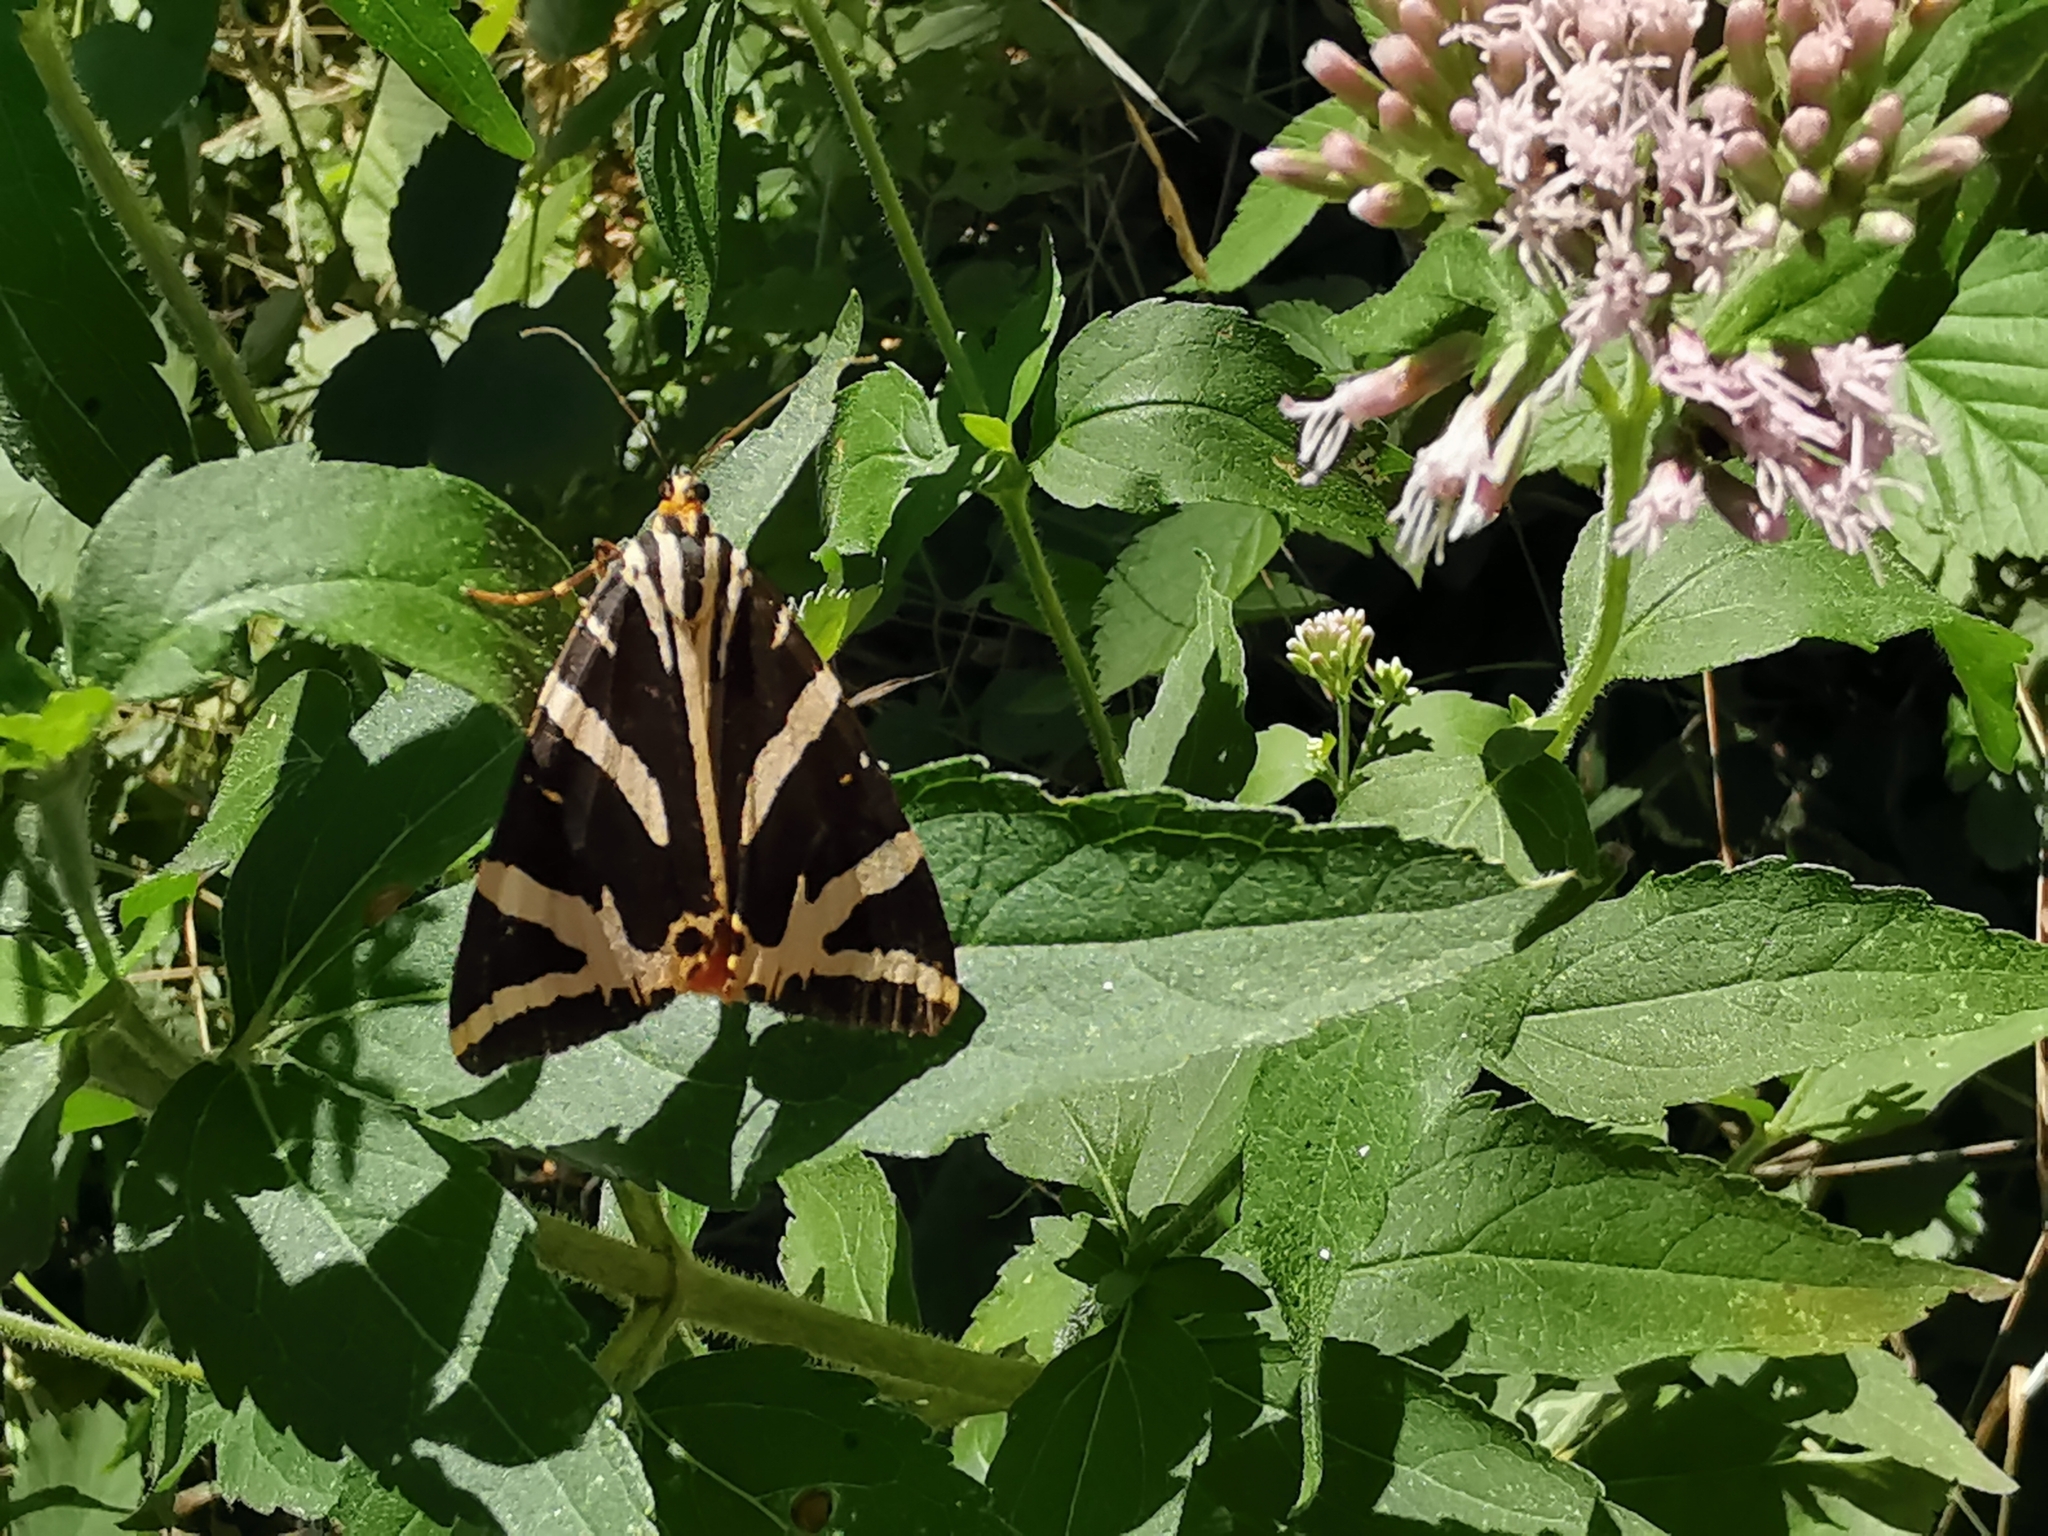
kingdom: Animalia
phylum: Arthropoda
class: Insecta
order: Lepidoptera
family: Erebidae
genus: Euplagia
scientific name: Euplagia quadripunctaria
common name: Jersey tiger
